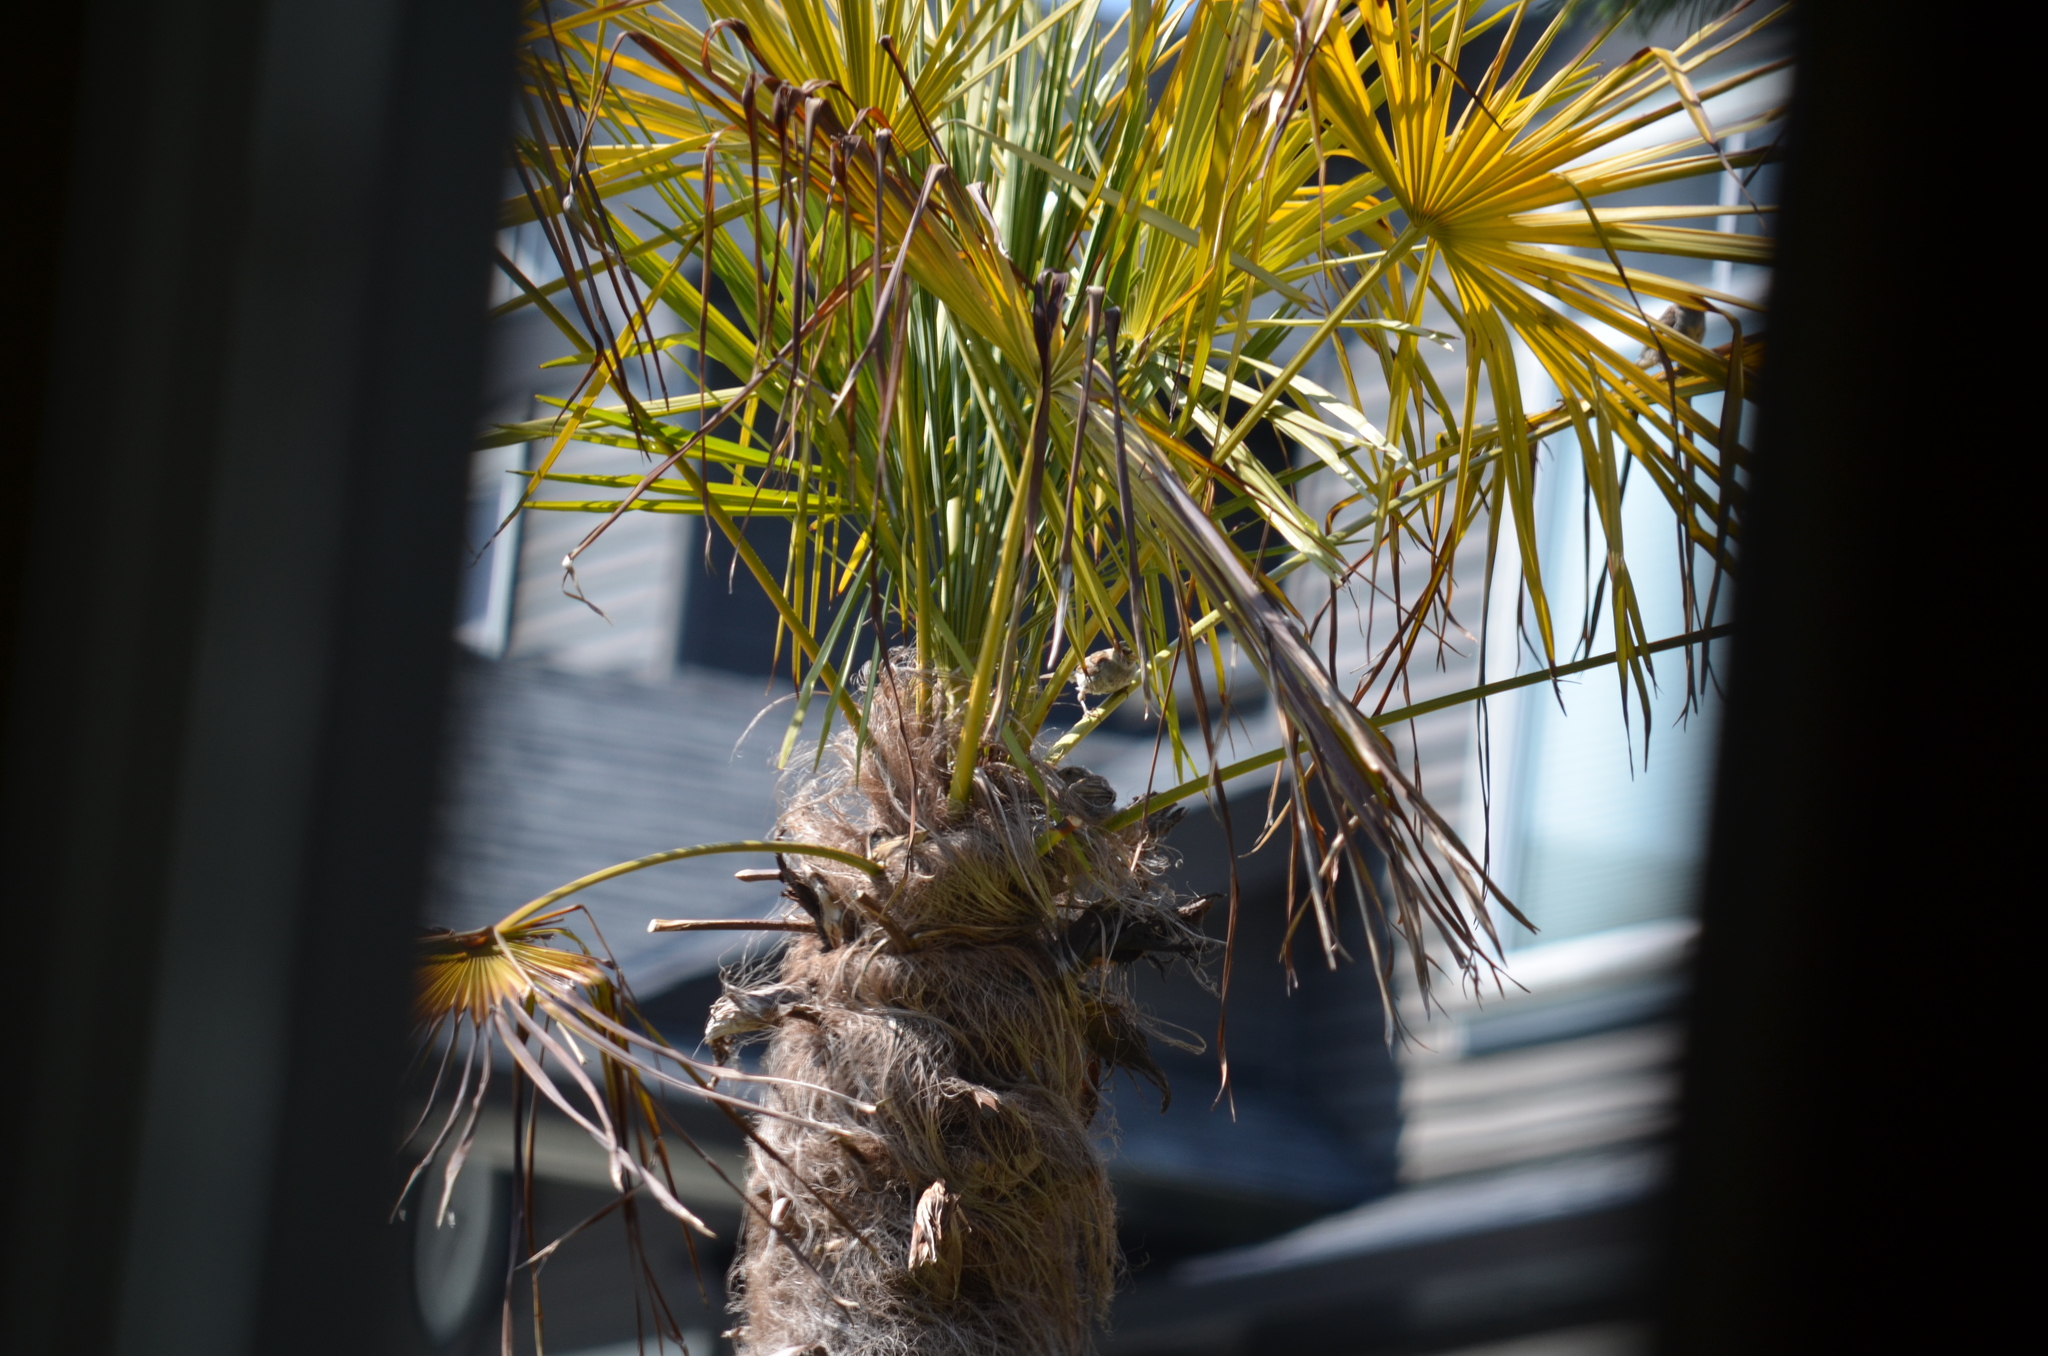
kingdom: Animalia
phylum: Chordata
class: Aves
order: Passeriformes
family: Passeridae
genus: Passer
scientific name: Passer domesticus
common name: House sparrow
